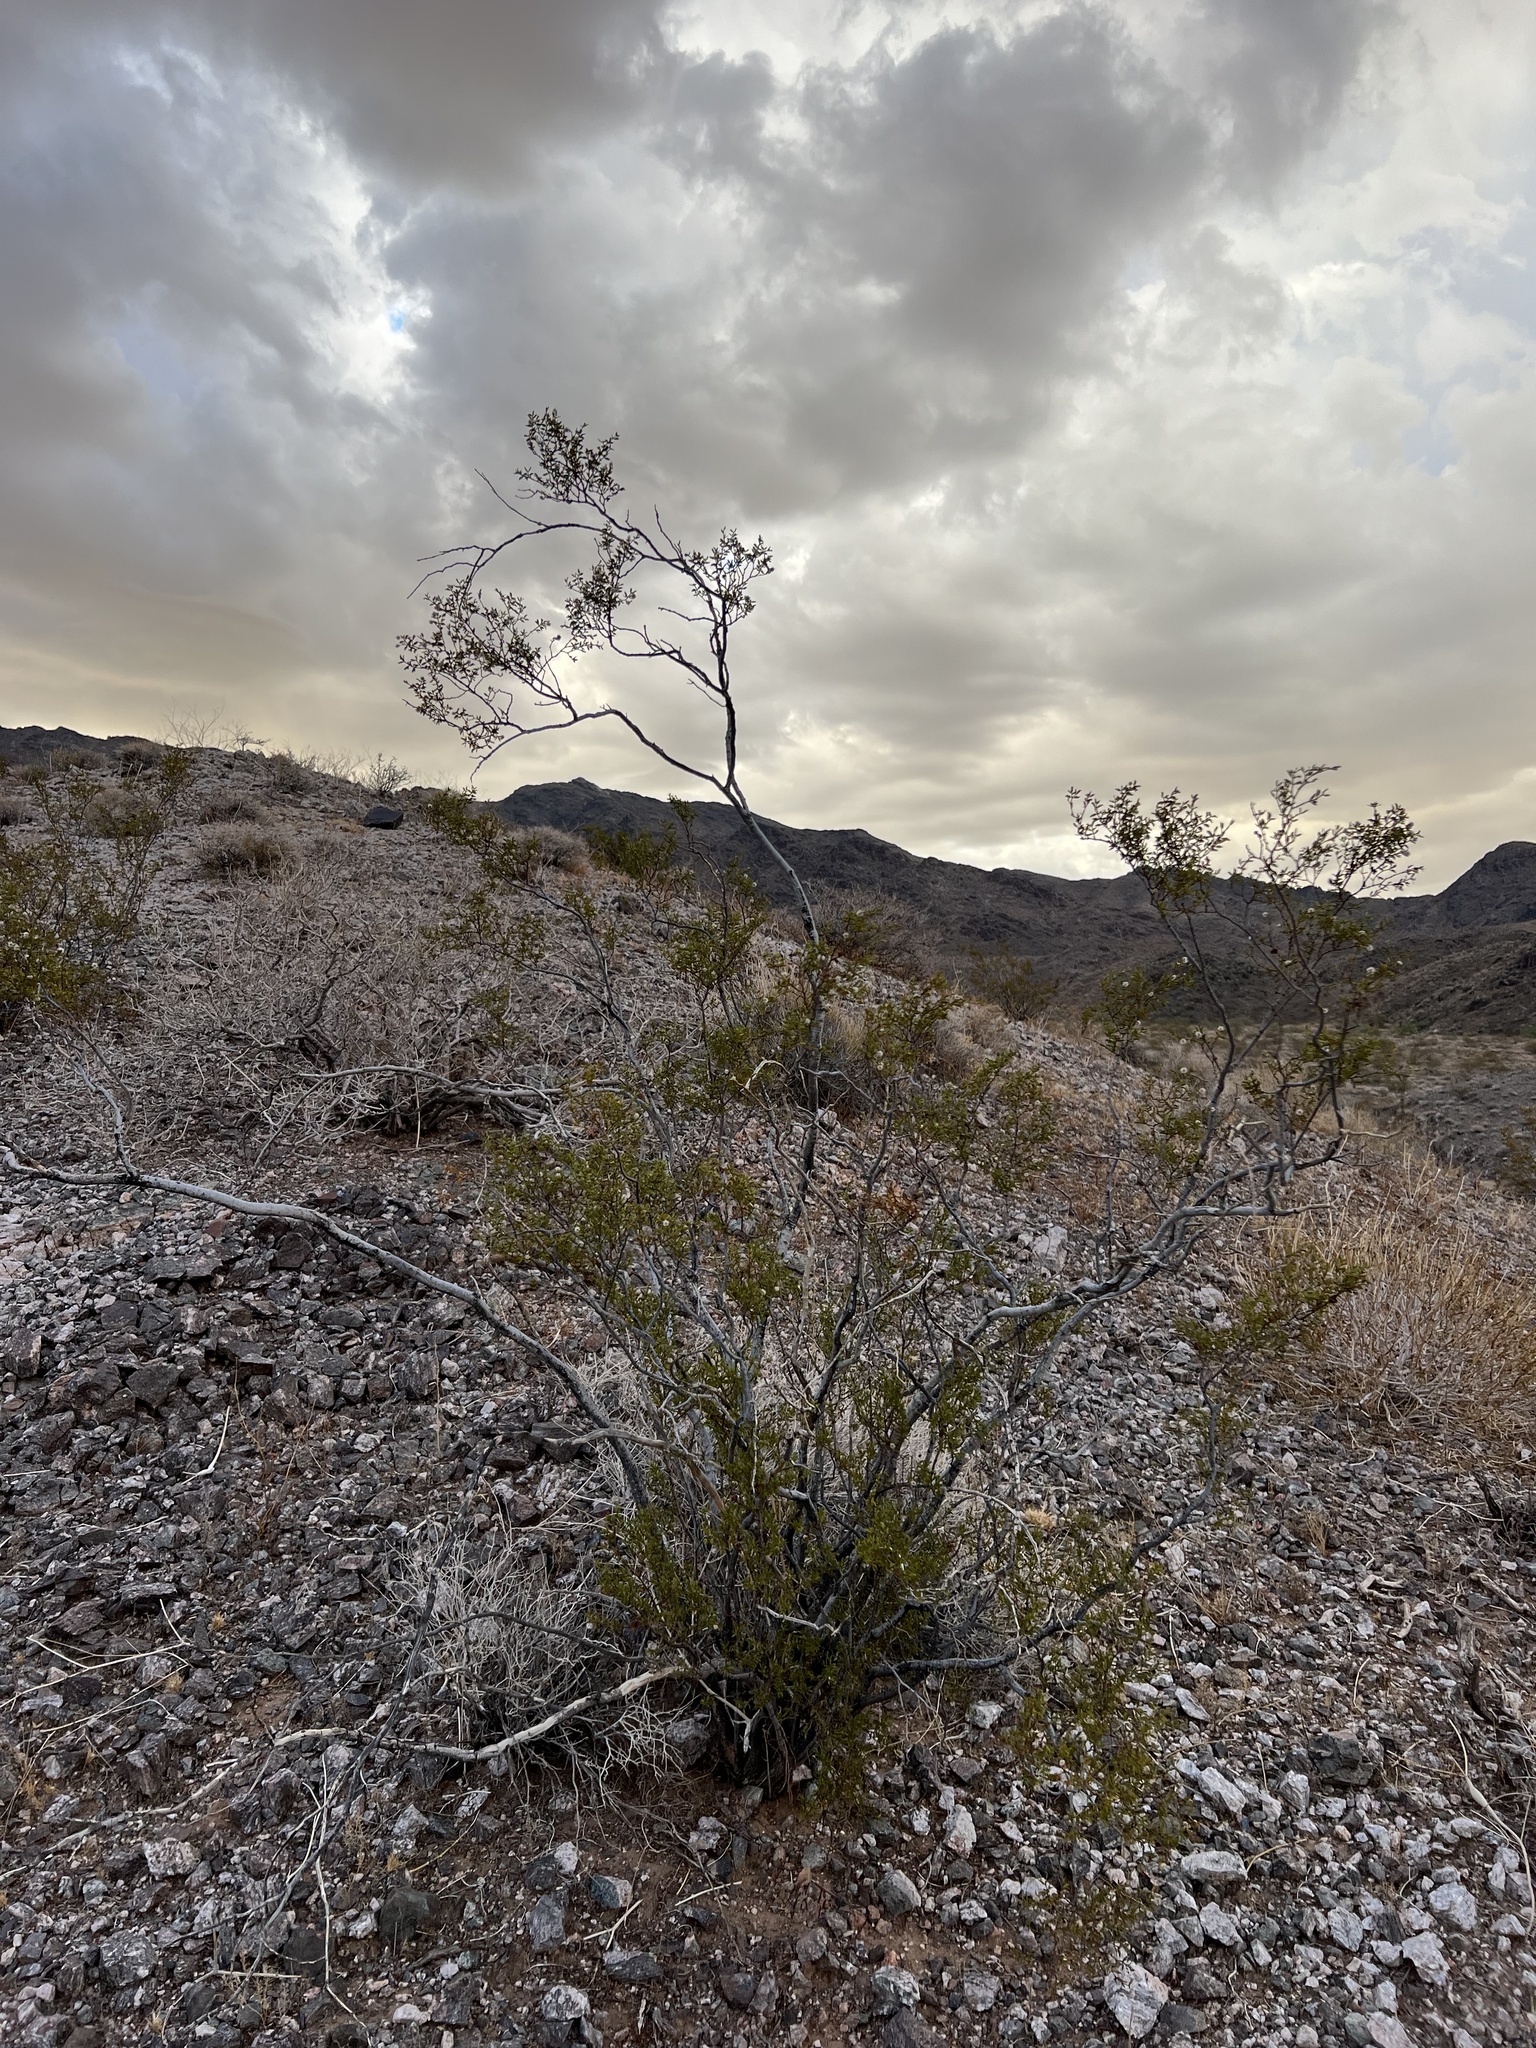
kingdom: Plantae
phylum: Tracheophyta
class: Magnoliopsida
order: Zygophyllales
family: Zygophyllaceae
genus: Larrea
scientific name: Larrea tridentata
